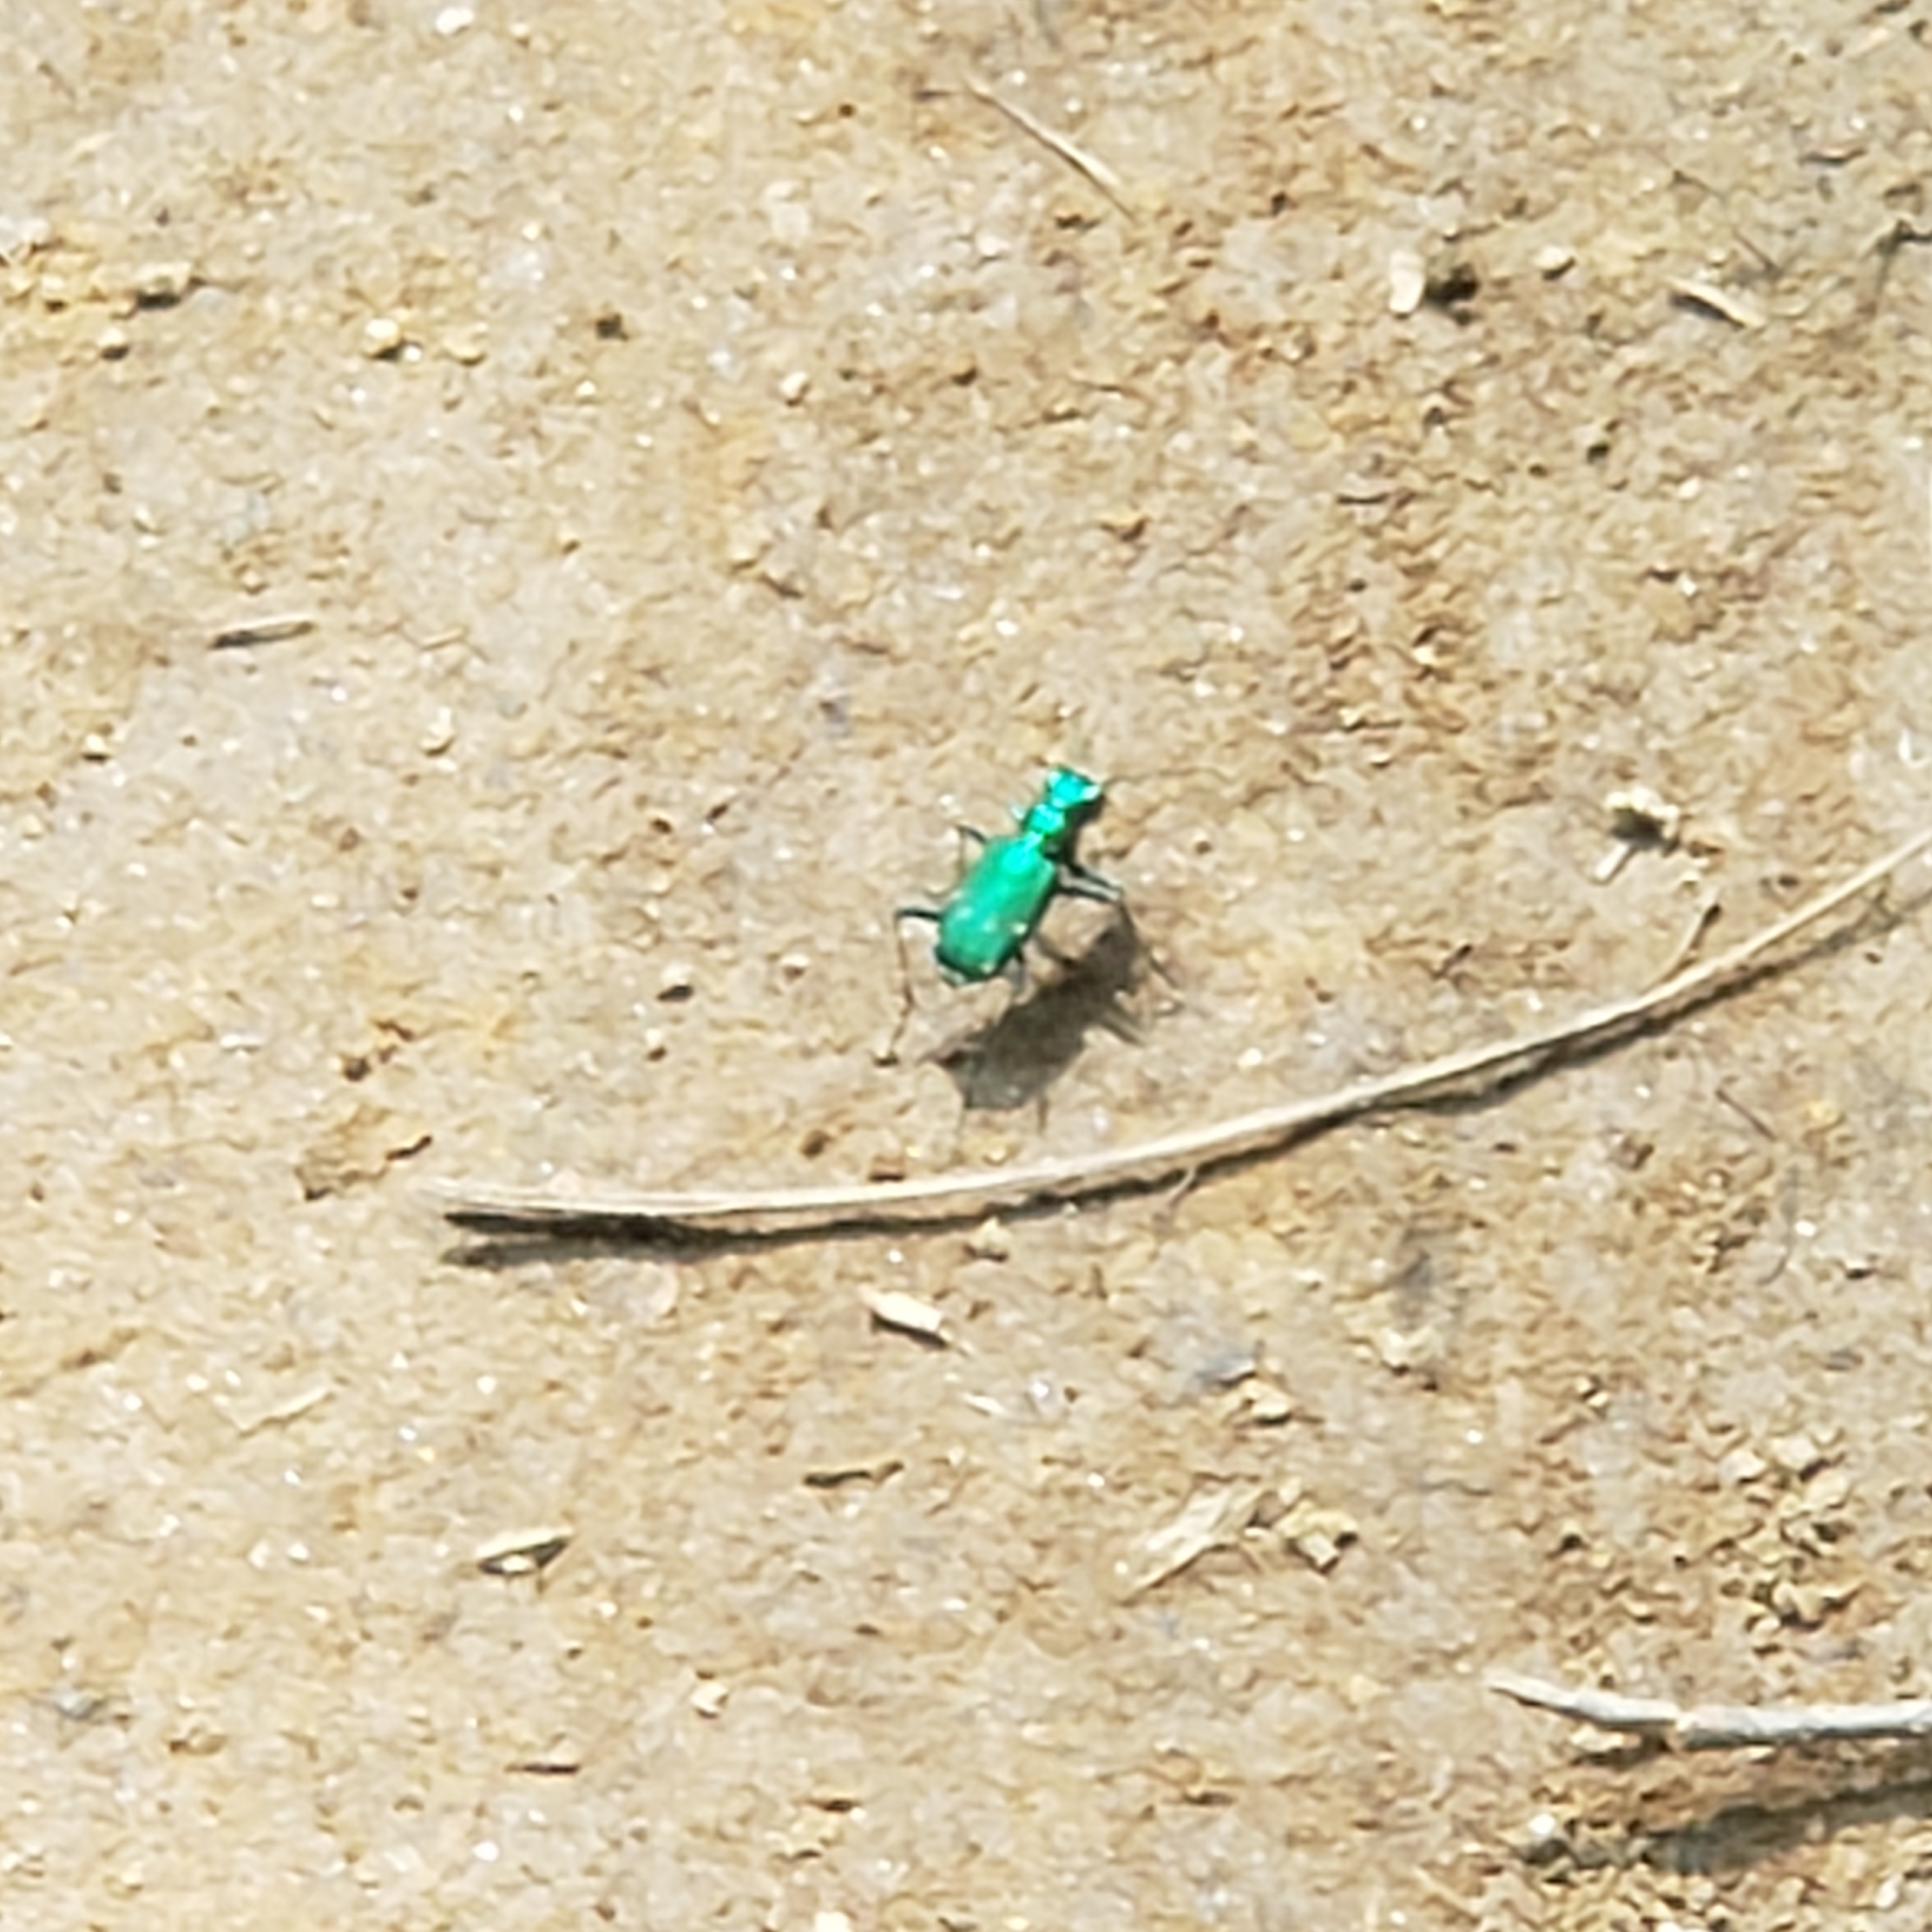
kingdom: Animalia
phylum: Arthropoda
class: Insecta
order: Coleoptera
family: Carabidae
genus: Cicindela
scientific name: Cicindela sexguttata
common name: Six-spotted tiger beetle
